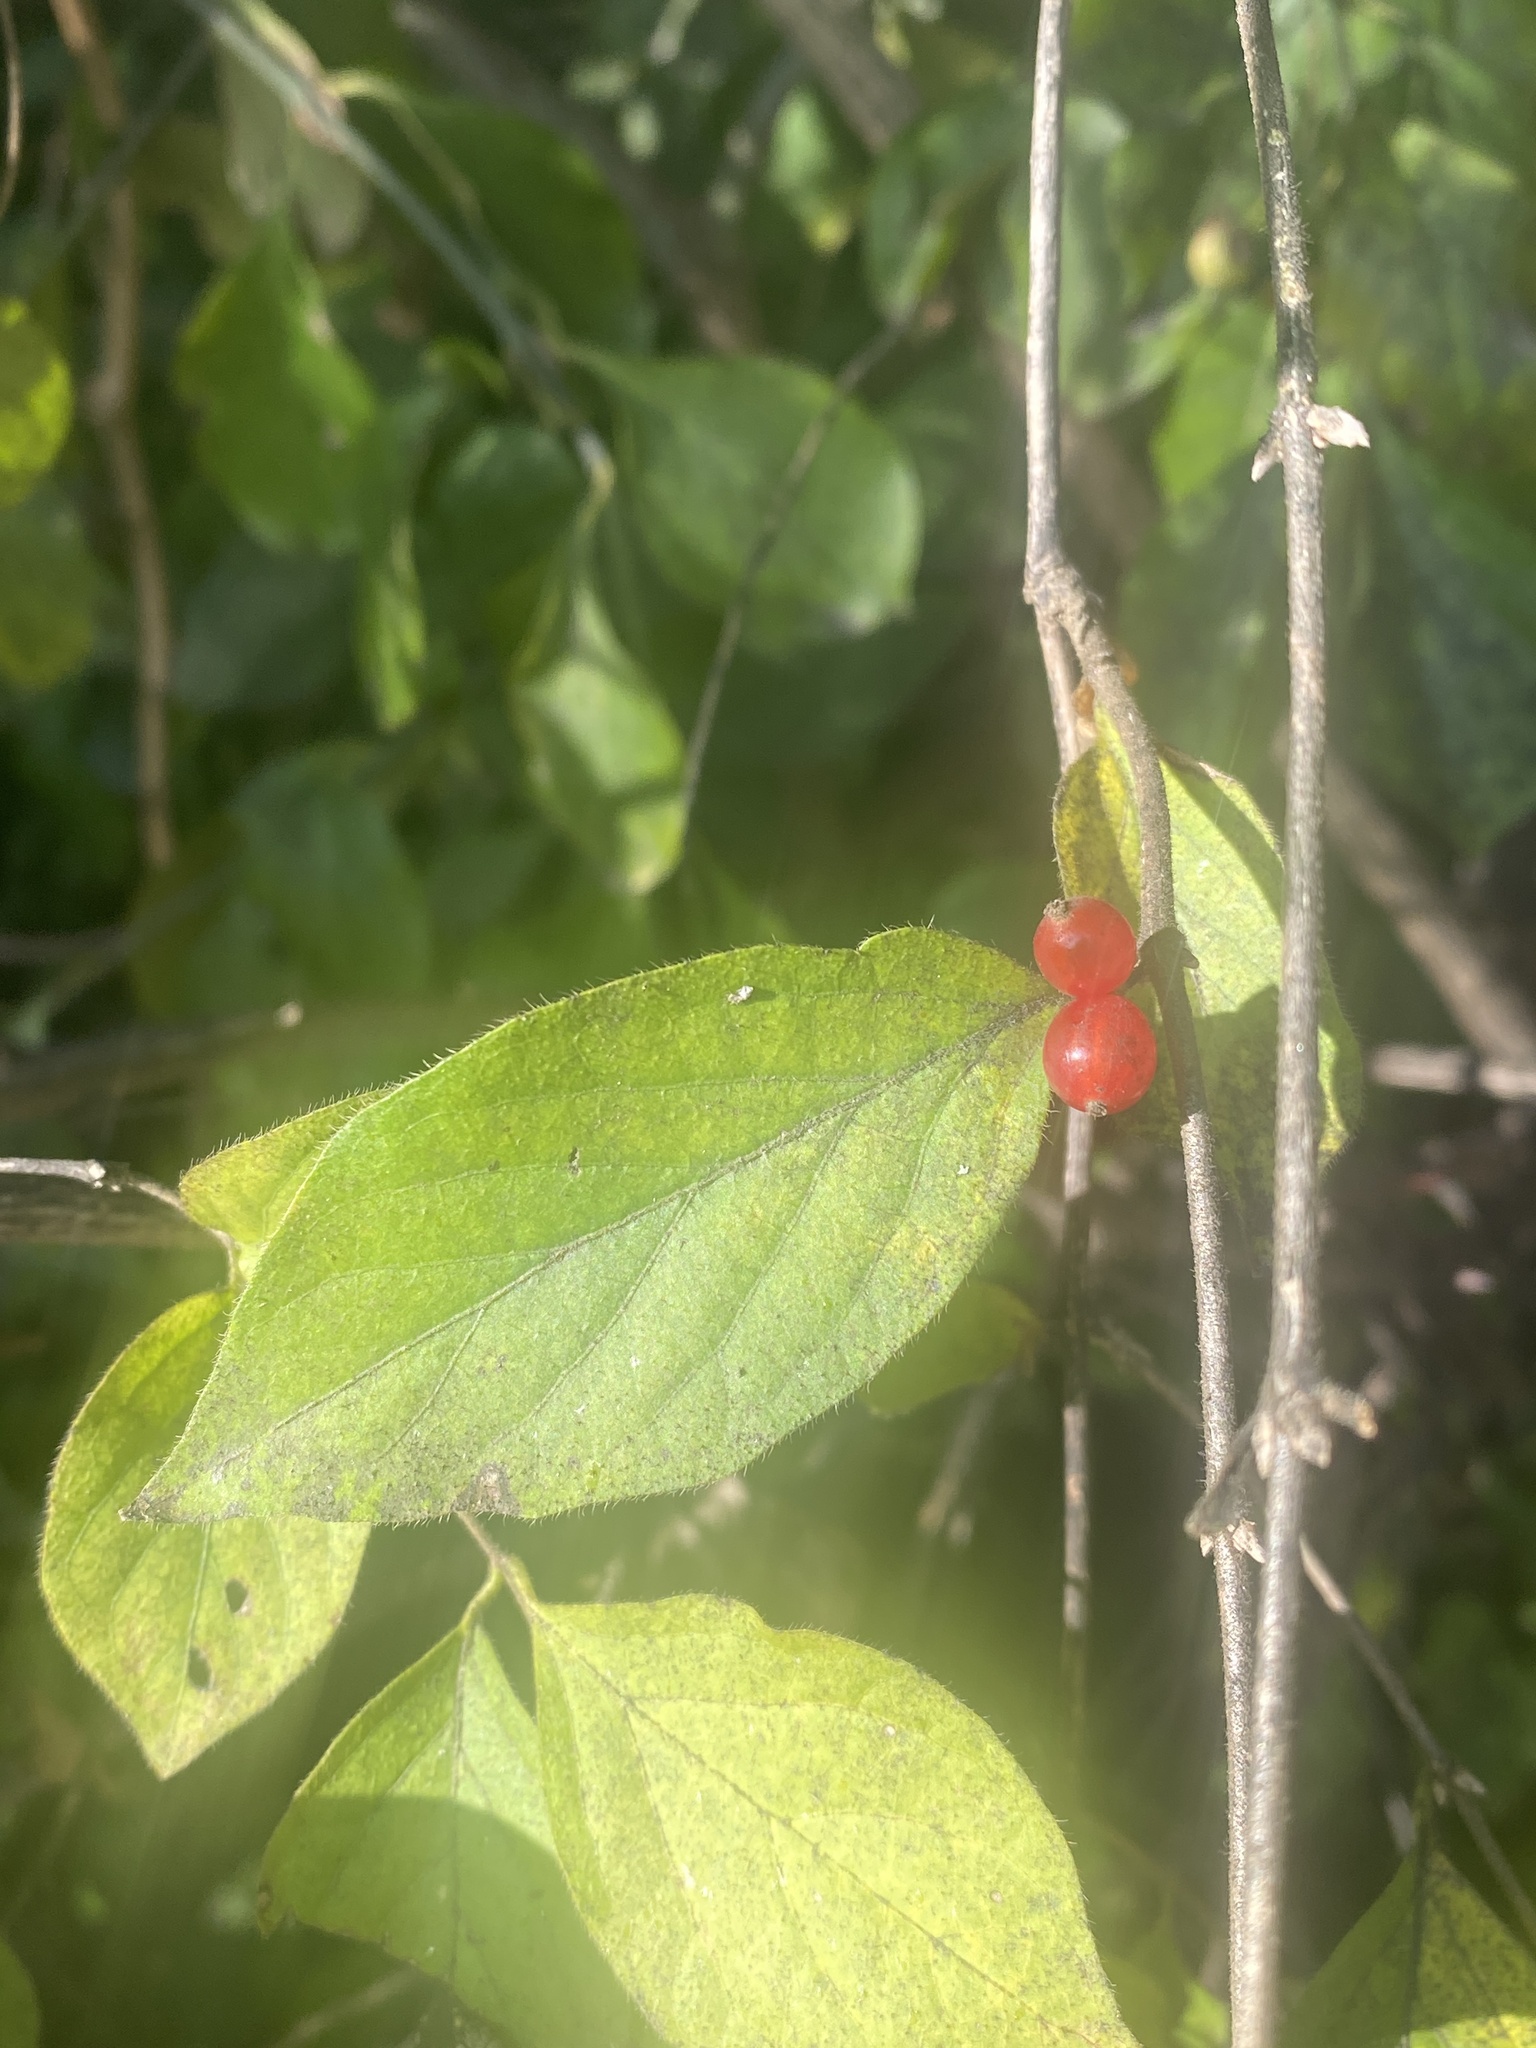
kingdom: Plantae
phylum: Tracheophyta
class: Magnoliopsida
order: Dipsacales
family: Caprifoliaceae
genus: Lonicera
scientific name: Lonicera maackii
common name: Amur honeysuckle
